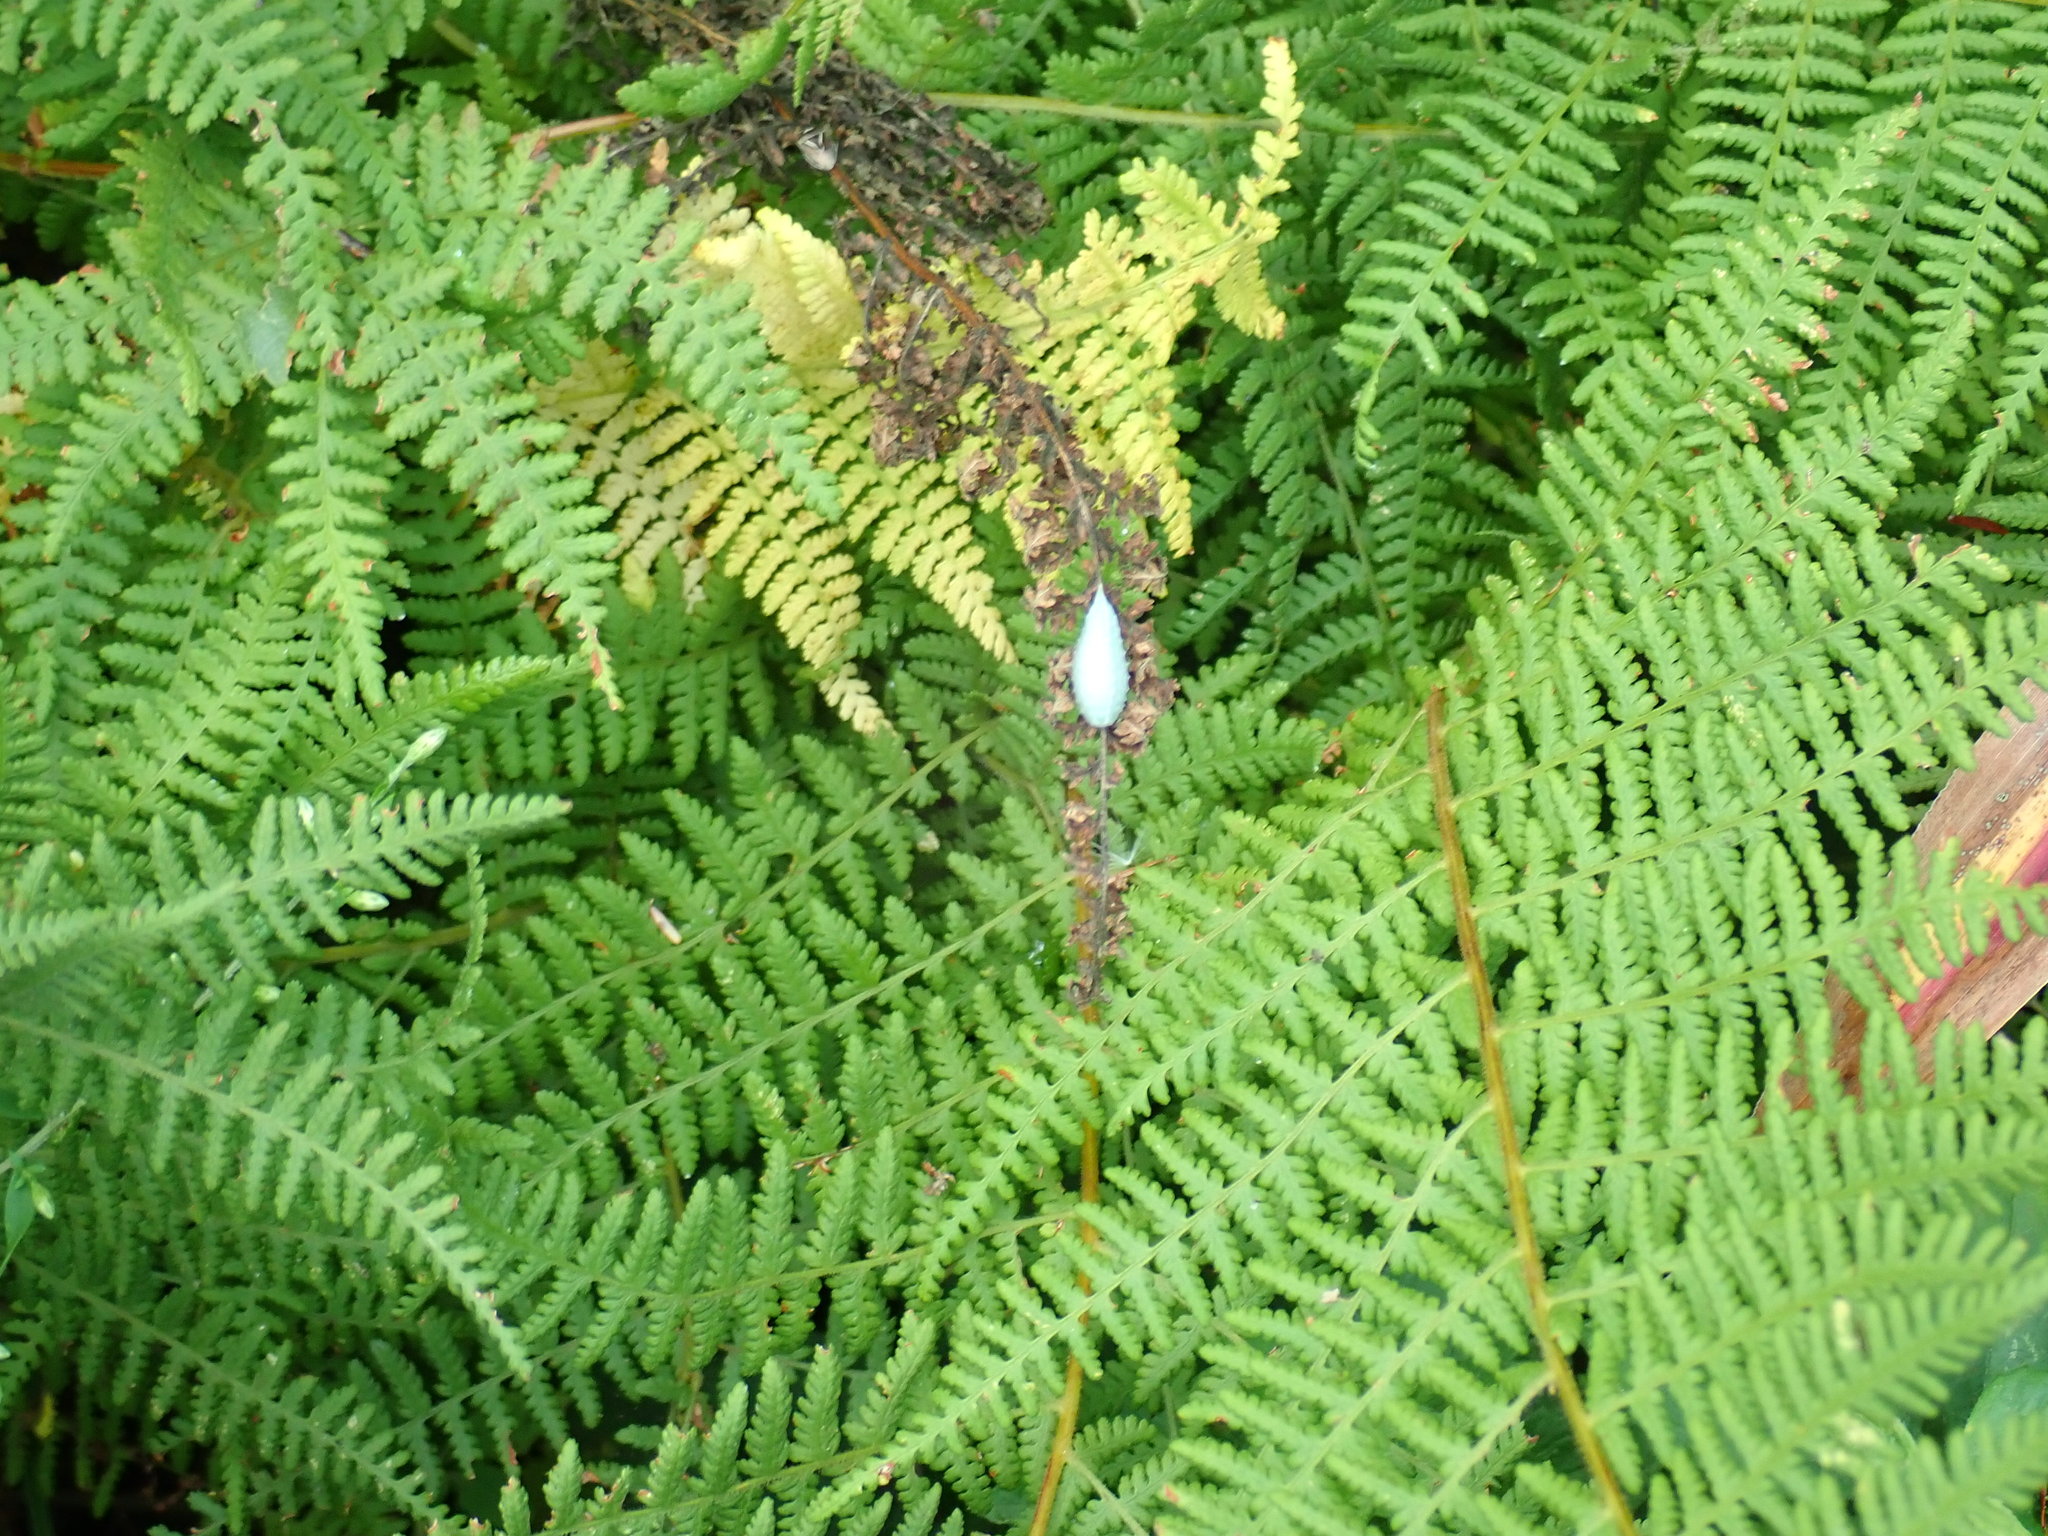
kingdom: Animalia
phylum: Arthropoda
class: Insecta
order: Lepidoptera
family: Limacodidae
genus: Packardia
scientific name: Packardia geminata
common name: Jeweled tailed slug moth
